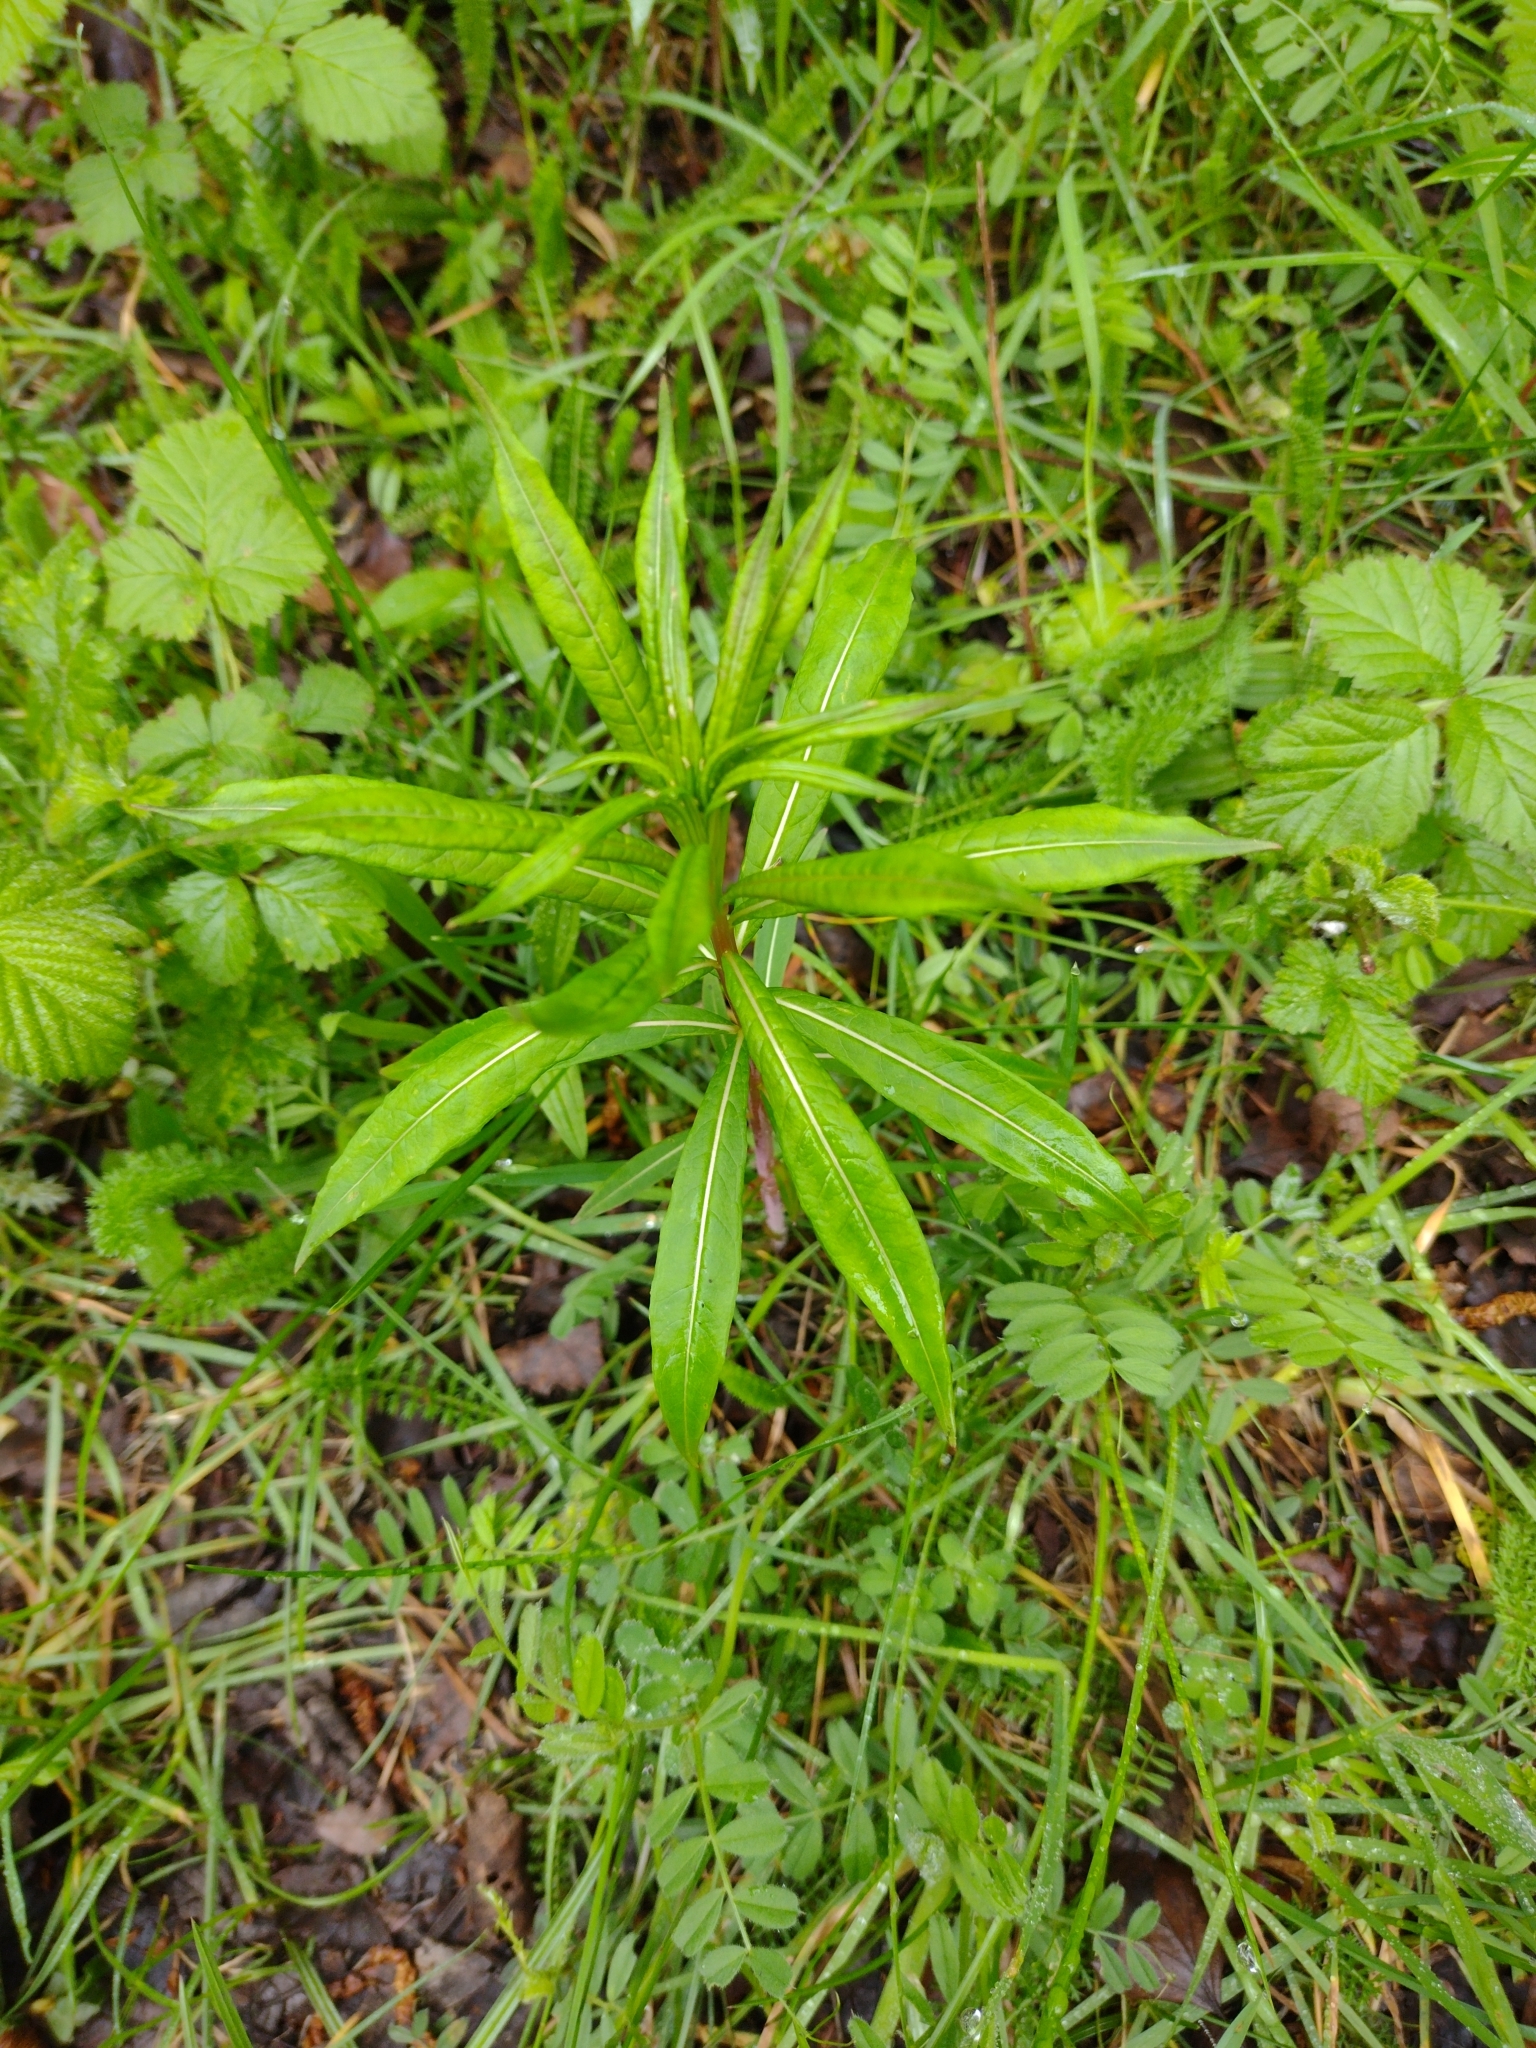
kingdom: Plantae
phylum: Tracheophyta
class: Magnoliopsida
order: Myrtales
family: Onagraceae
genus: Chamaenerion
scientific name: Chamaenerion angustifolium
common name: Fireweed
